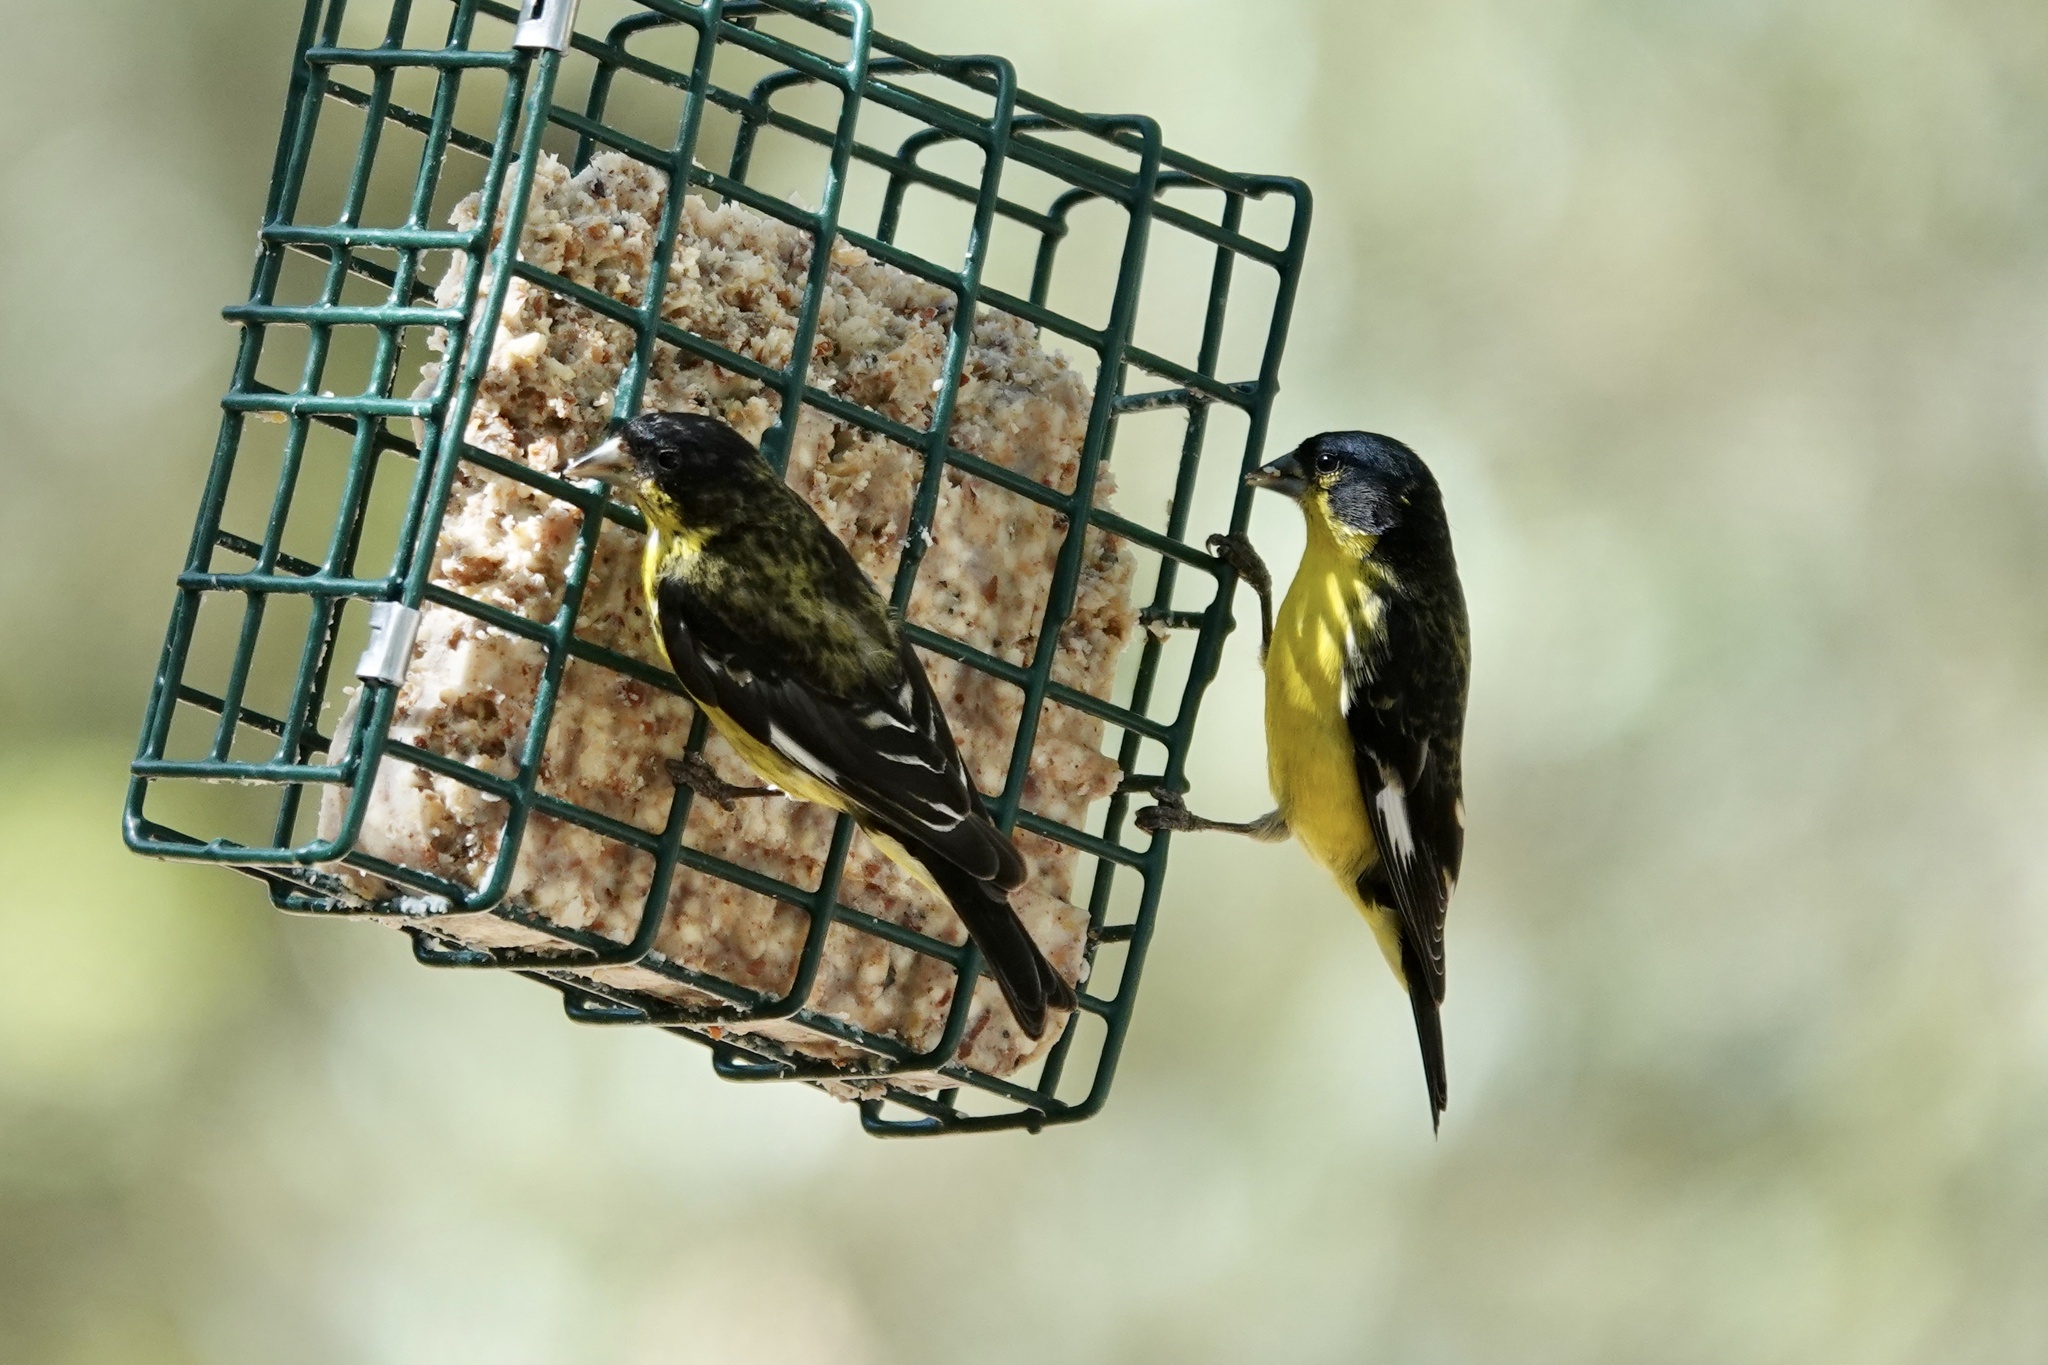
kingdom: Animalia
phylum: Chordata
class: Aves
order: Passeriformes
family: Fringillidae
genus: Spinus
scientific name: Spinus psaltria
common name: Lesser goldfinch
